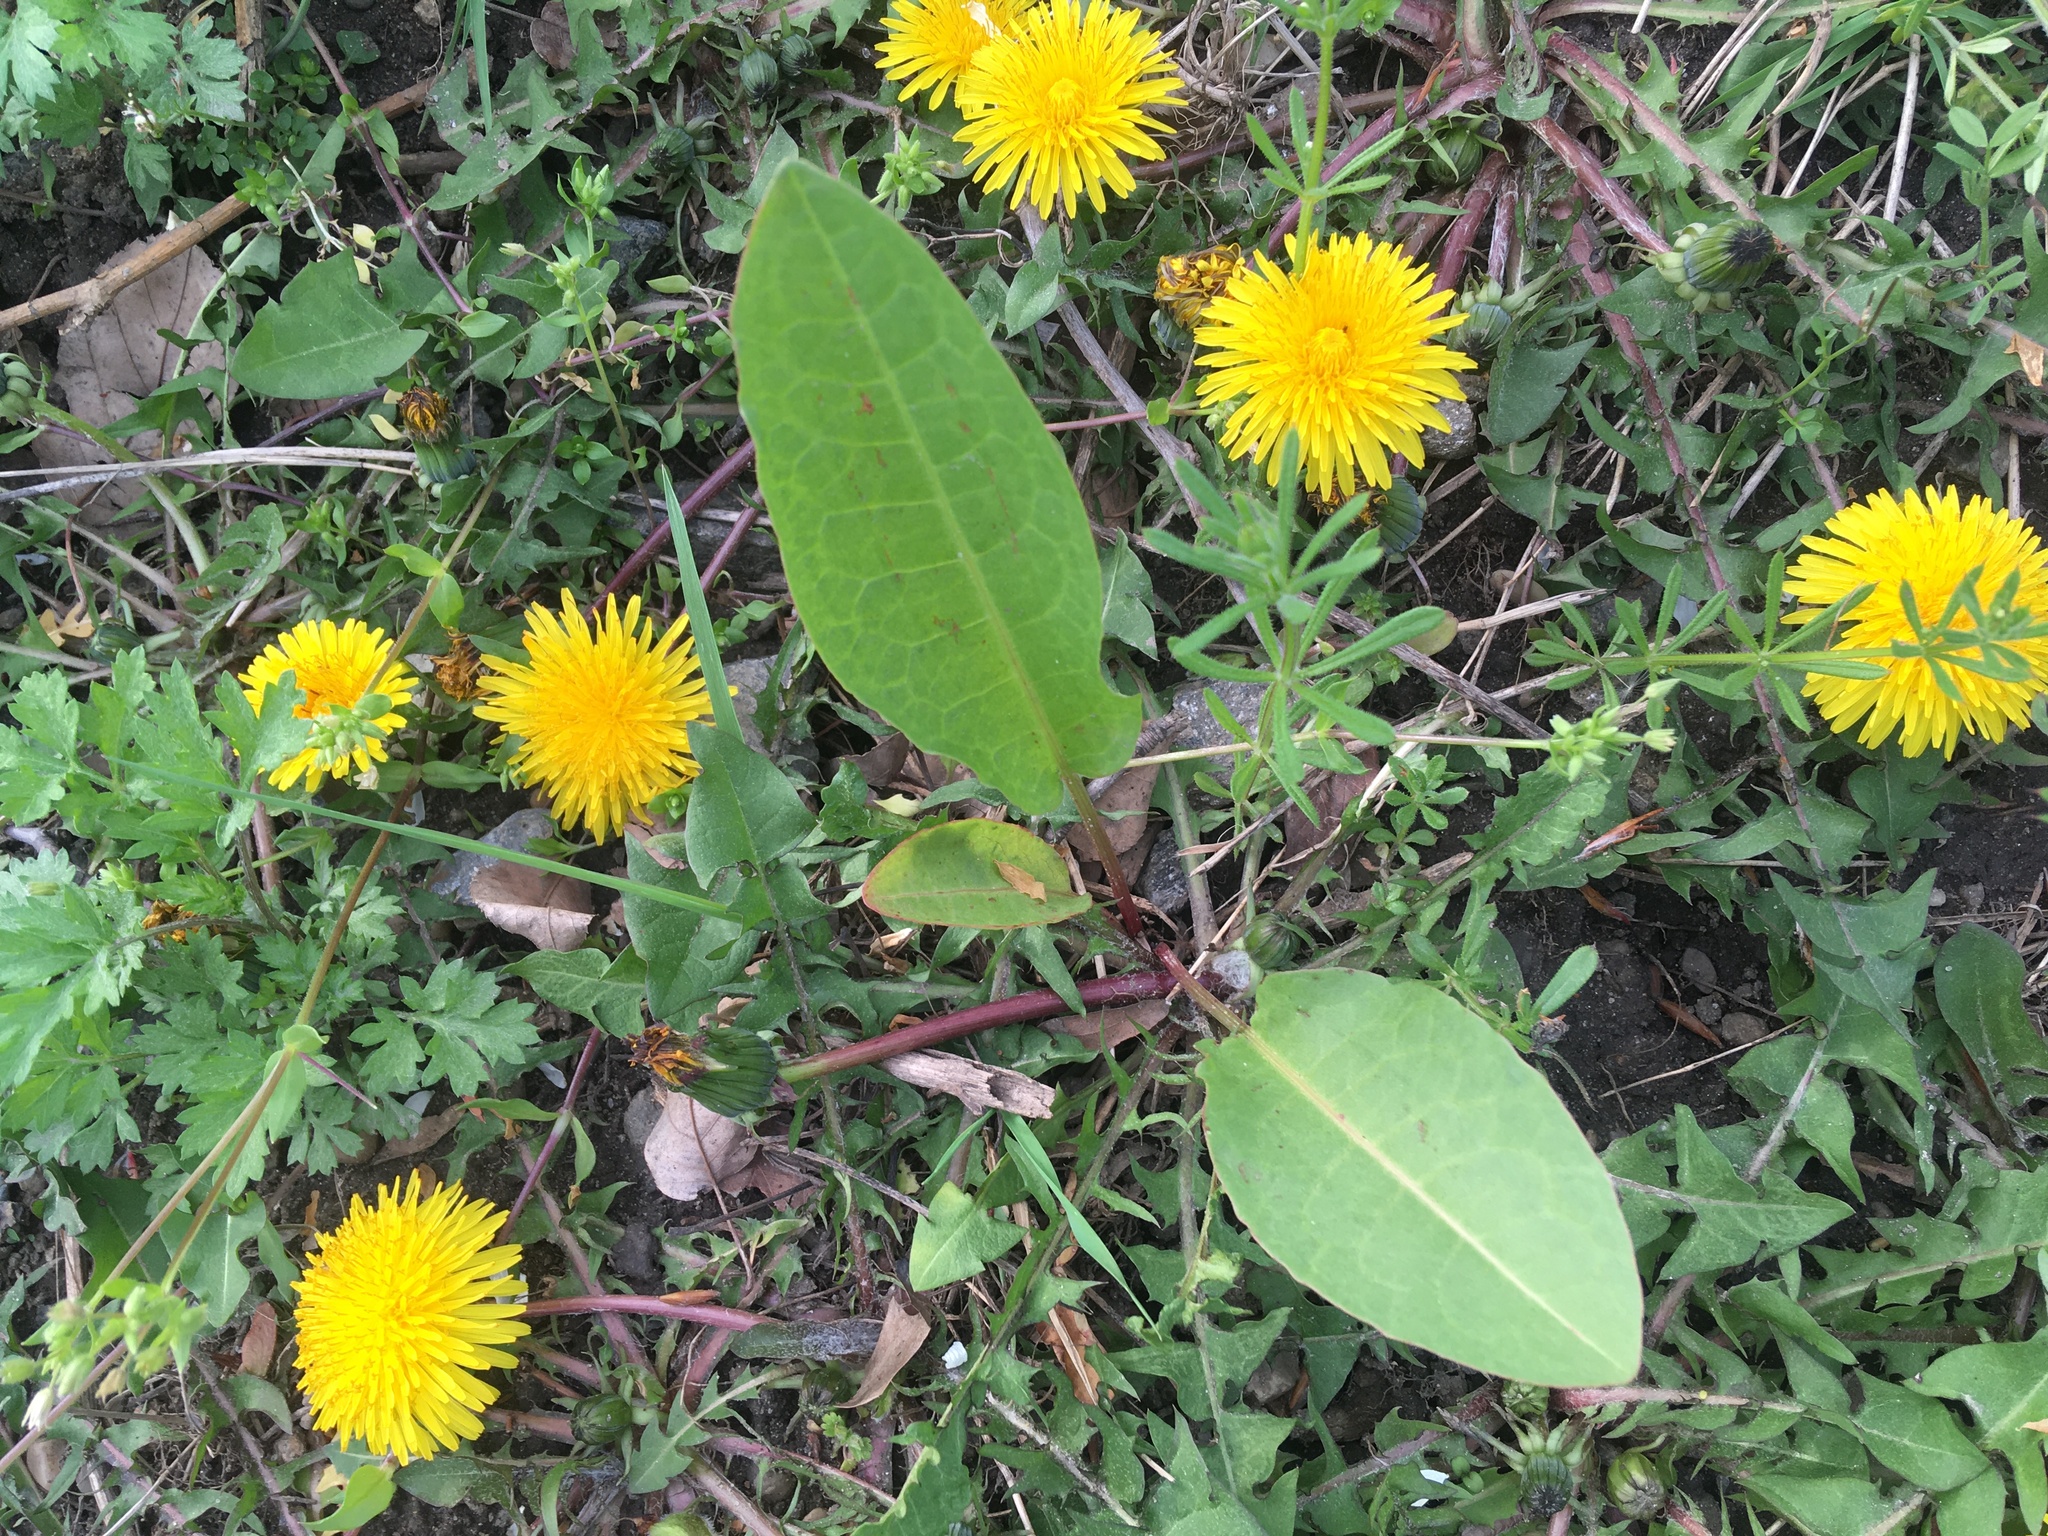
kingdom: Plantae
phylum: Tracheophyta
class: Magnoliopsida
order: Asterales
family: Asteraceae
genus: Taraxacum
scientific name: Taraxacum officinale
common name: Common dandelion
